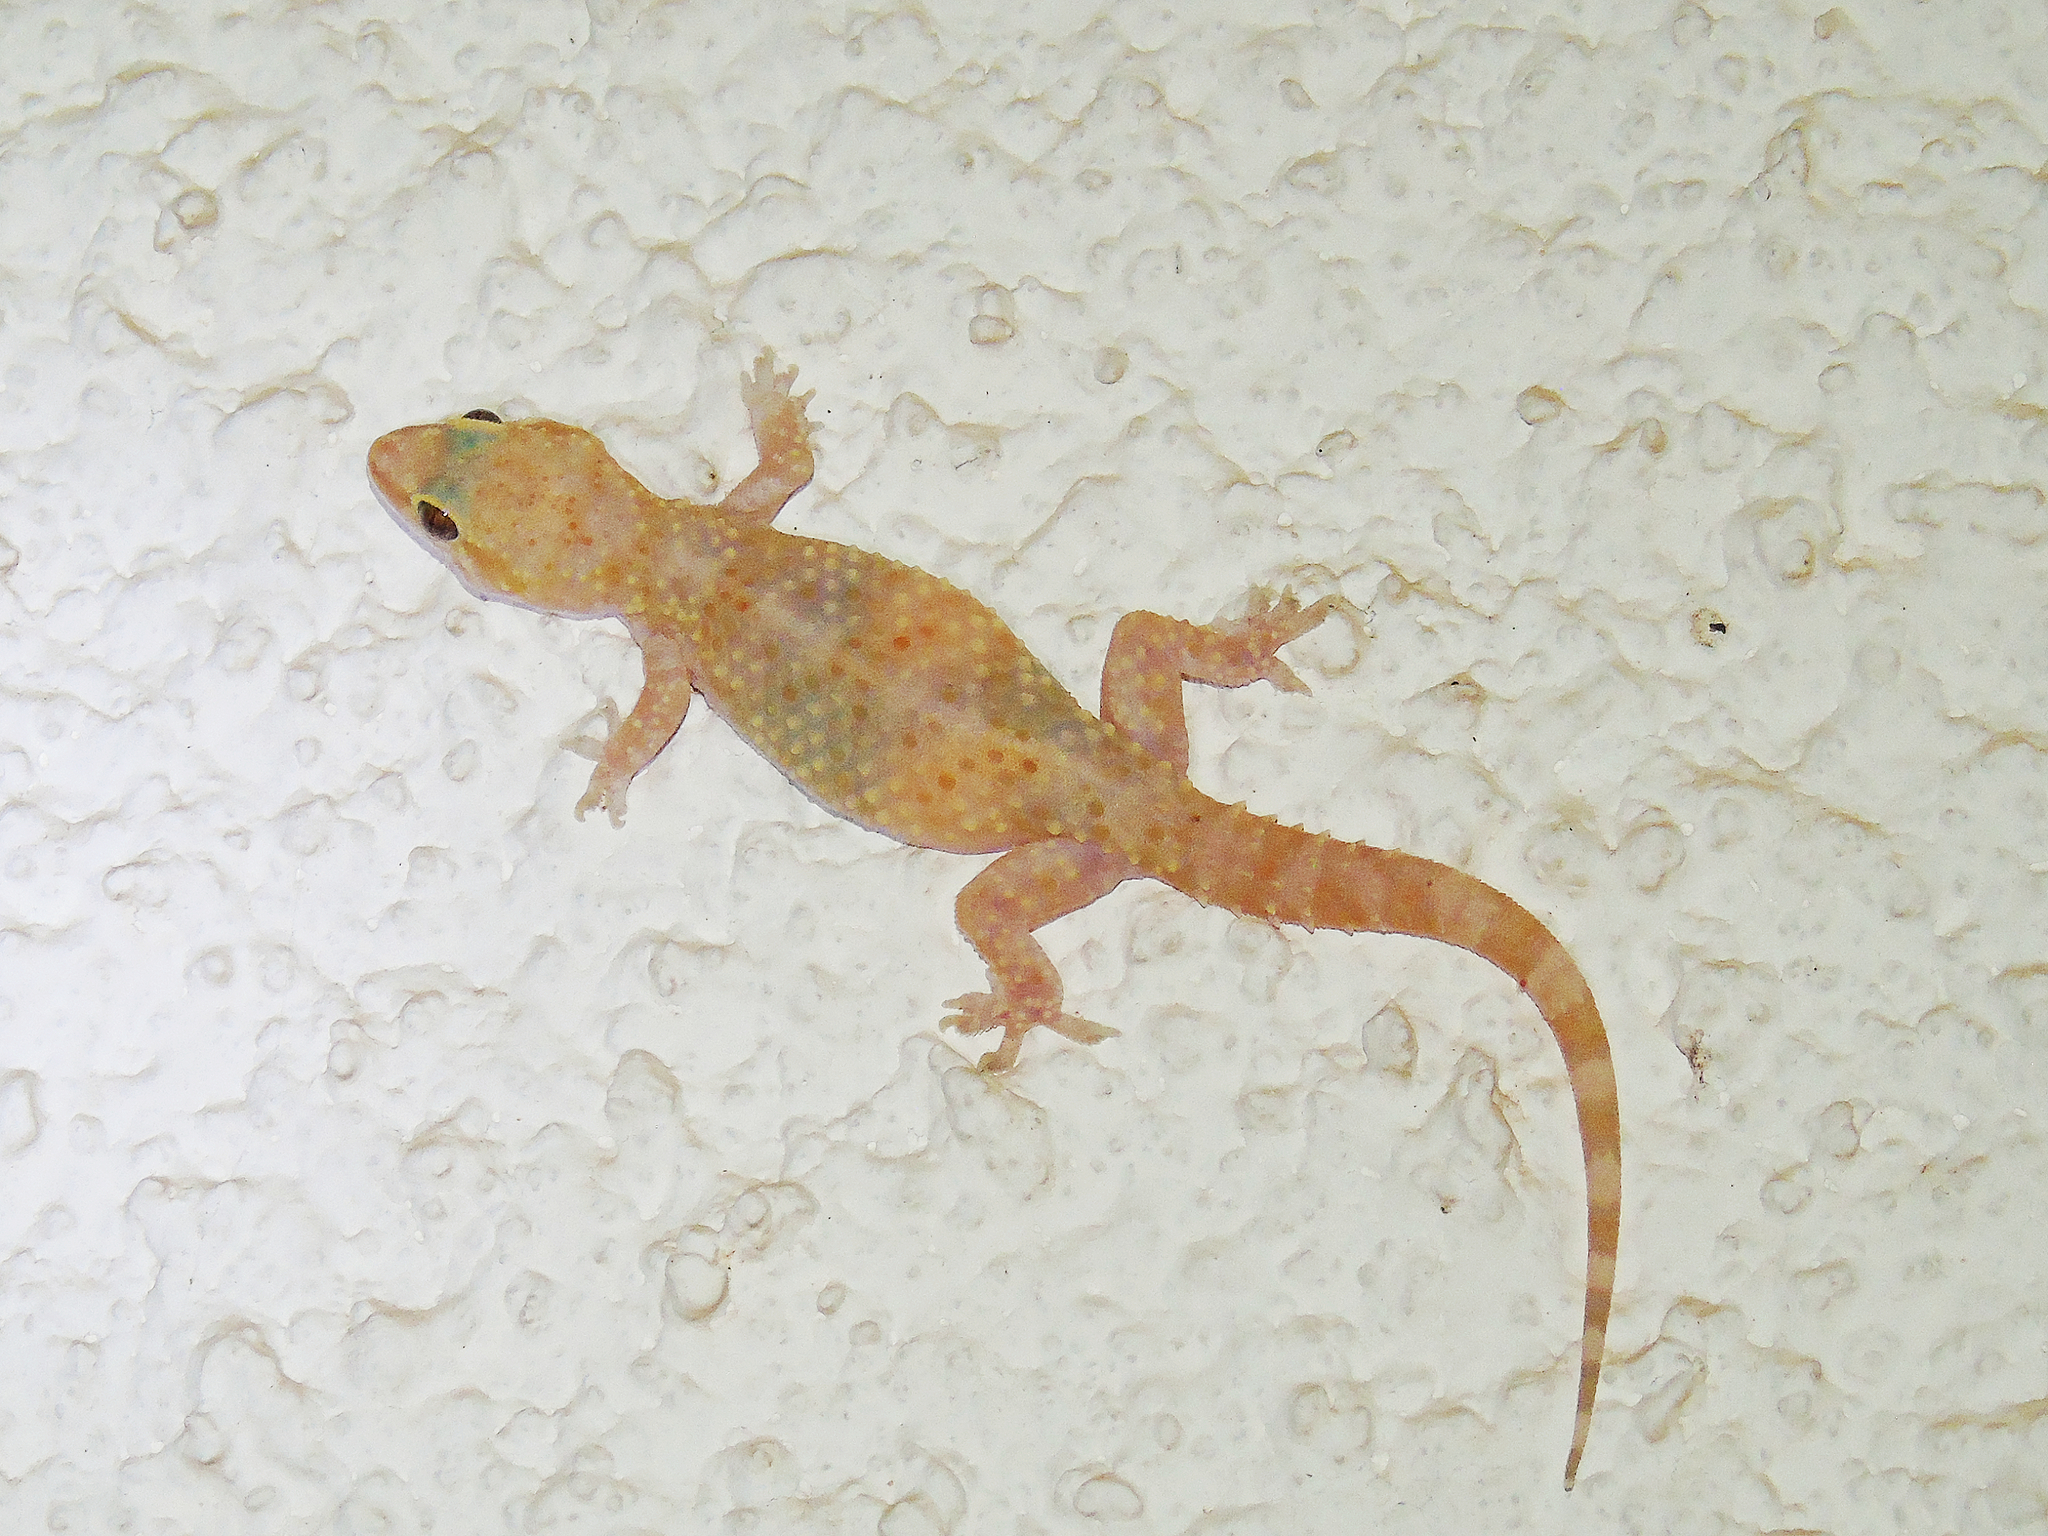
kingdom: Animalia
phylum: Chordata
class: Squamata
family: Gekkonidae
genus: Hemidactylus
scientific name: Hemidactylus turcicus
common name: Turkish gecko
